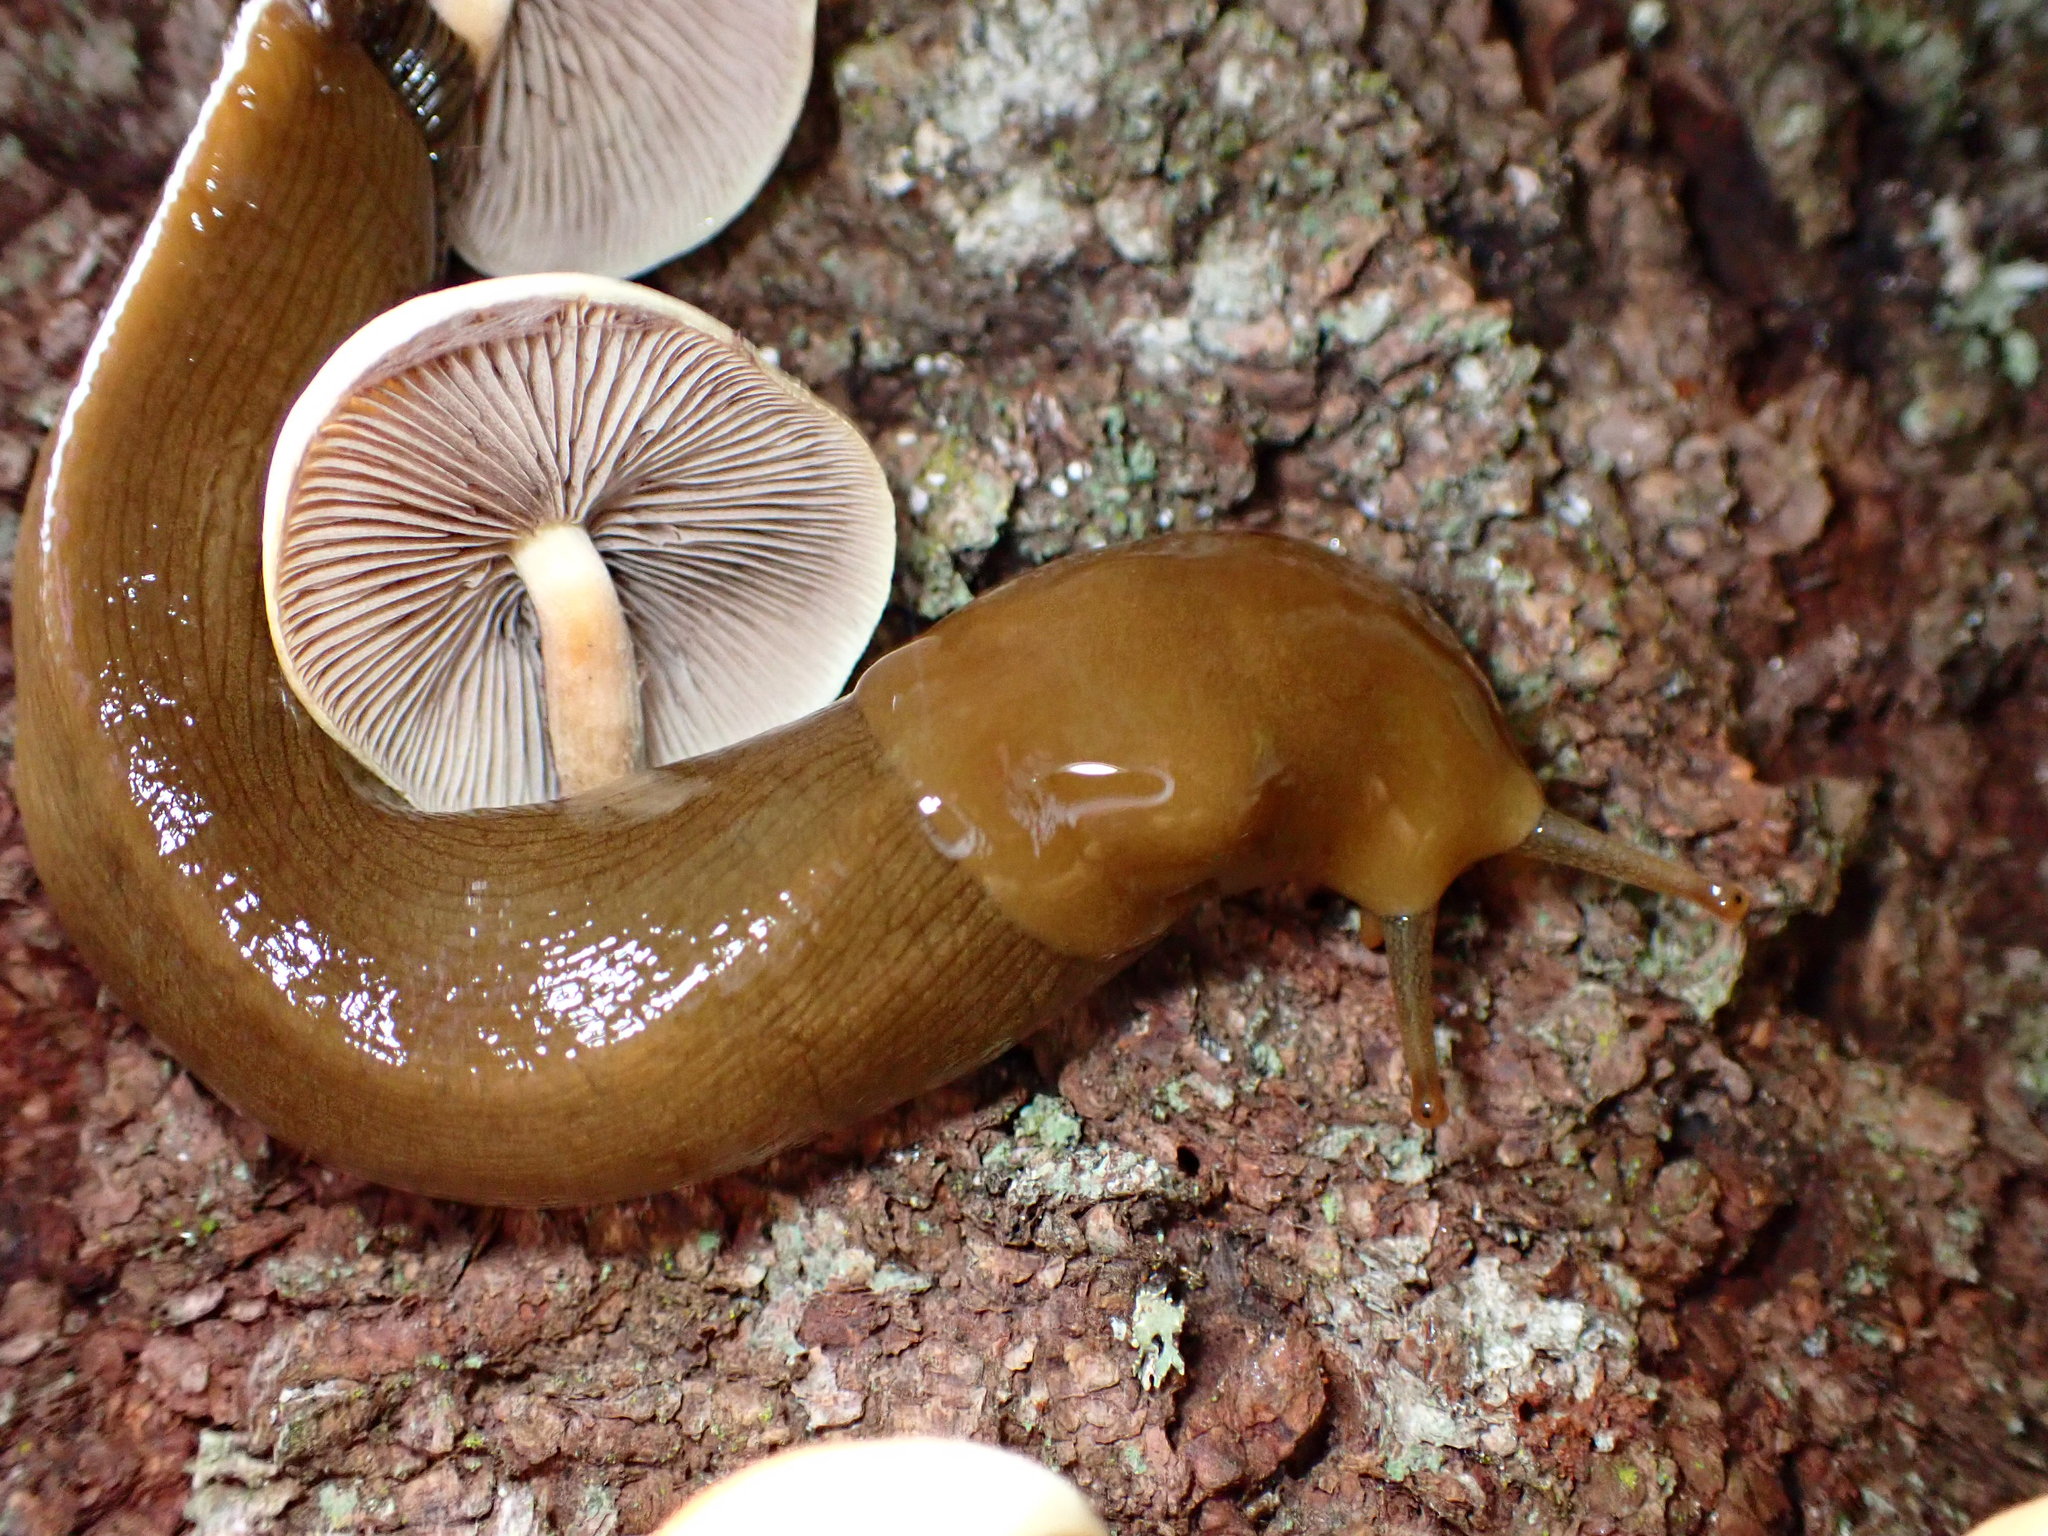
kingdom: Animalia
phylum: Mollusca
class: Gastropoda
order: Stylommatophora
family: Ariolimacidae
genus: Ariolimax
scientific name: Ariolimax buttoni
